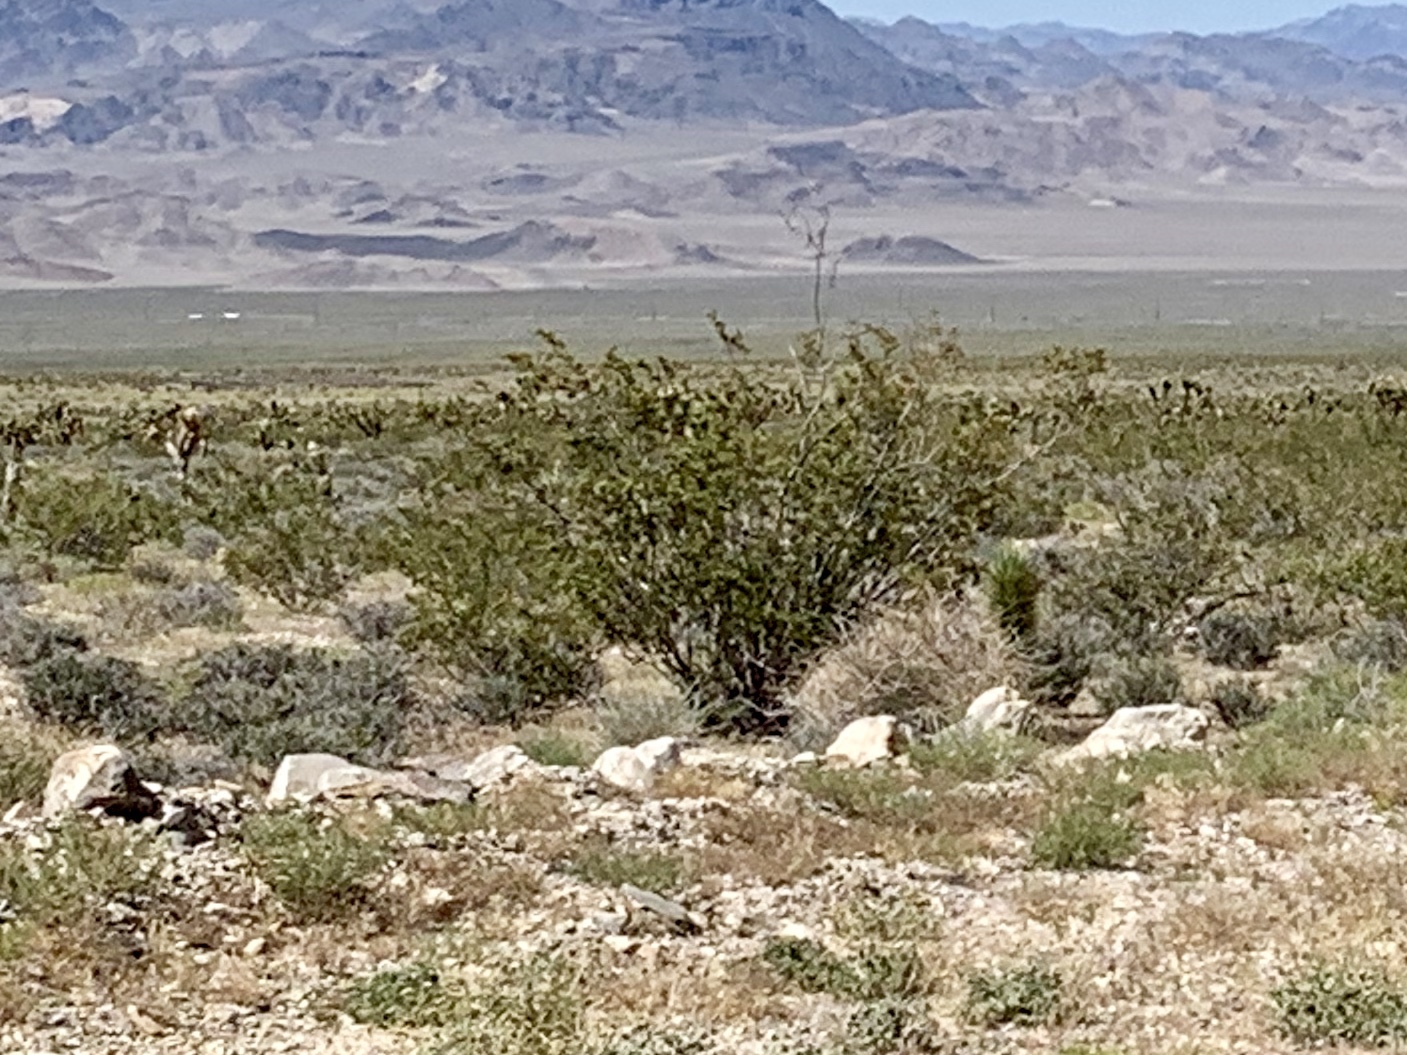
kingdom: Plantae
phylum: Tracheophyta
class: Magnoliopsida
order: Zygophyllales
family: Zygophyllaceae
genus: Larrea
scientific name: Larrea tridentata
